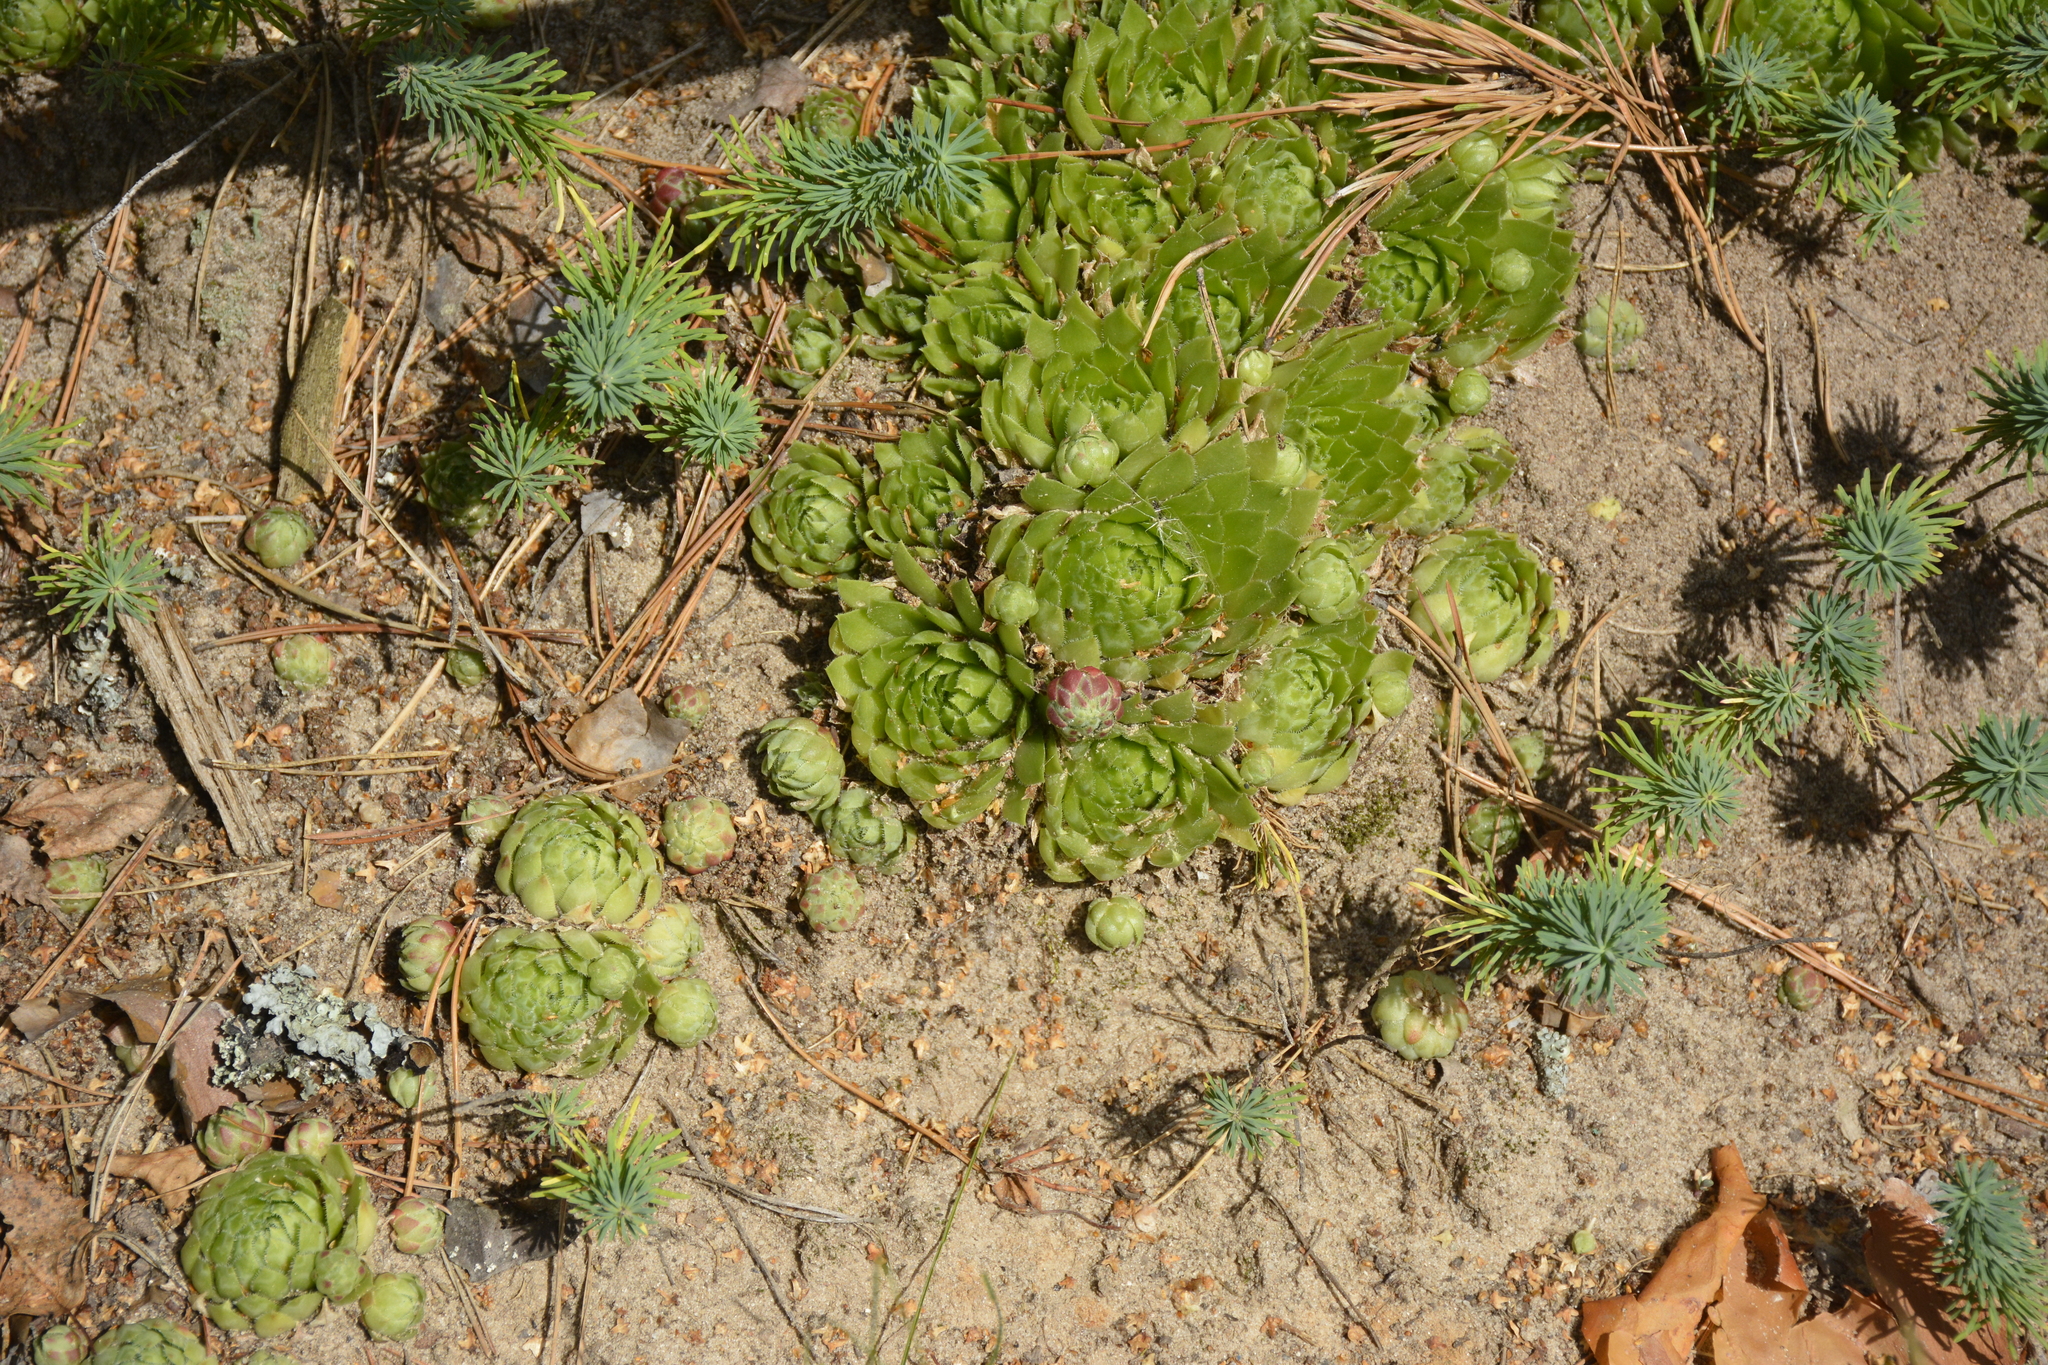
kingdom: Plantae
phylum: Tracheophyta
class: Magnoliopsida
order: Saxifragales
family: Crassulaceae
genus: Sempervivum
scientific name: Sempervivum globiferum
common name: Rolling hen-and-chicks
